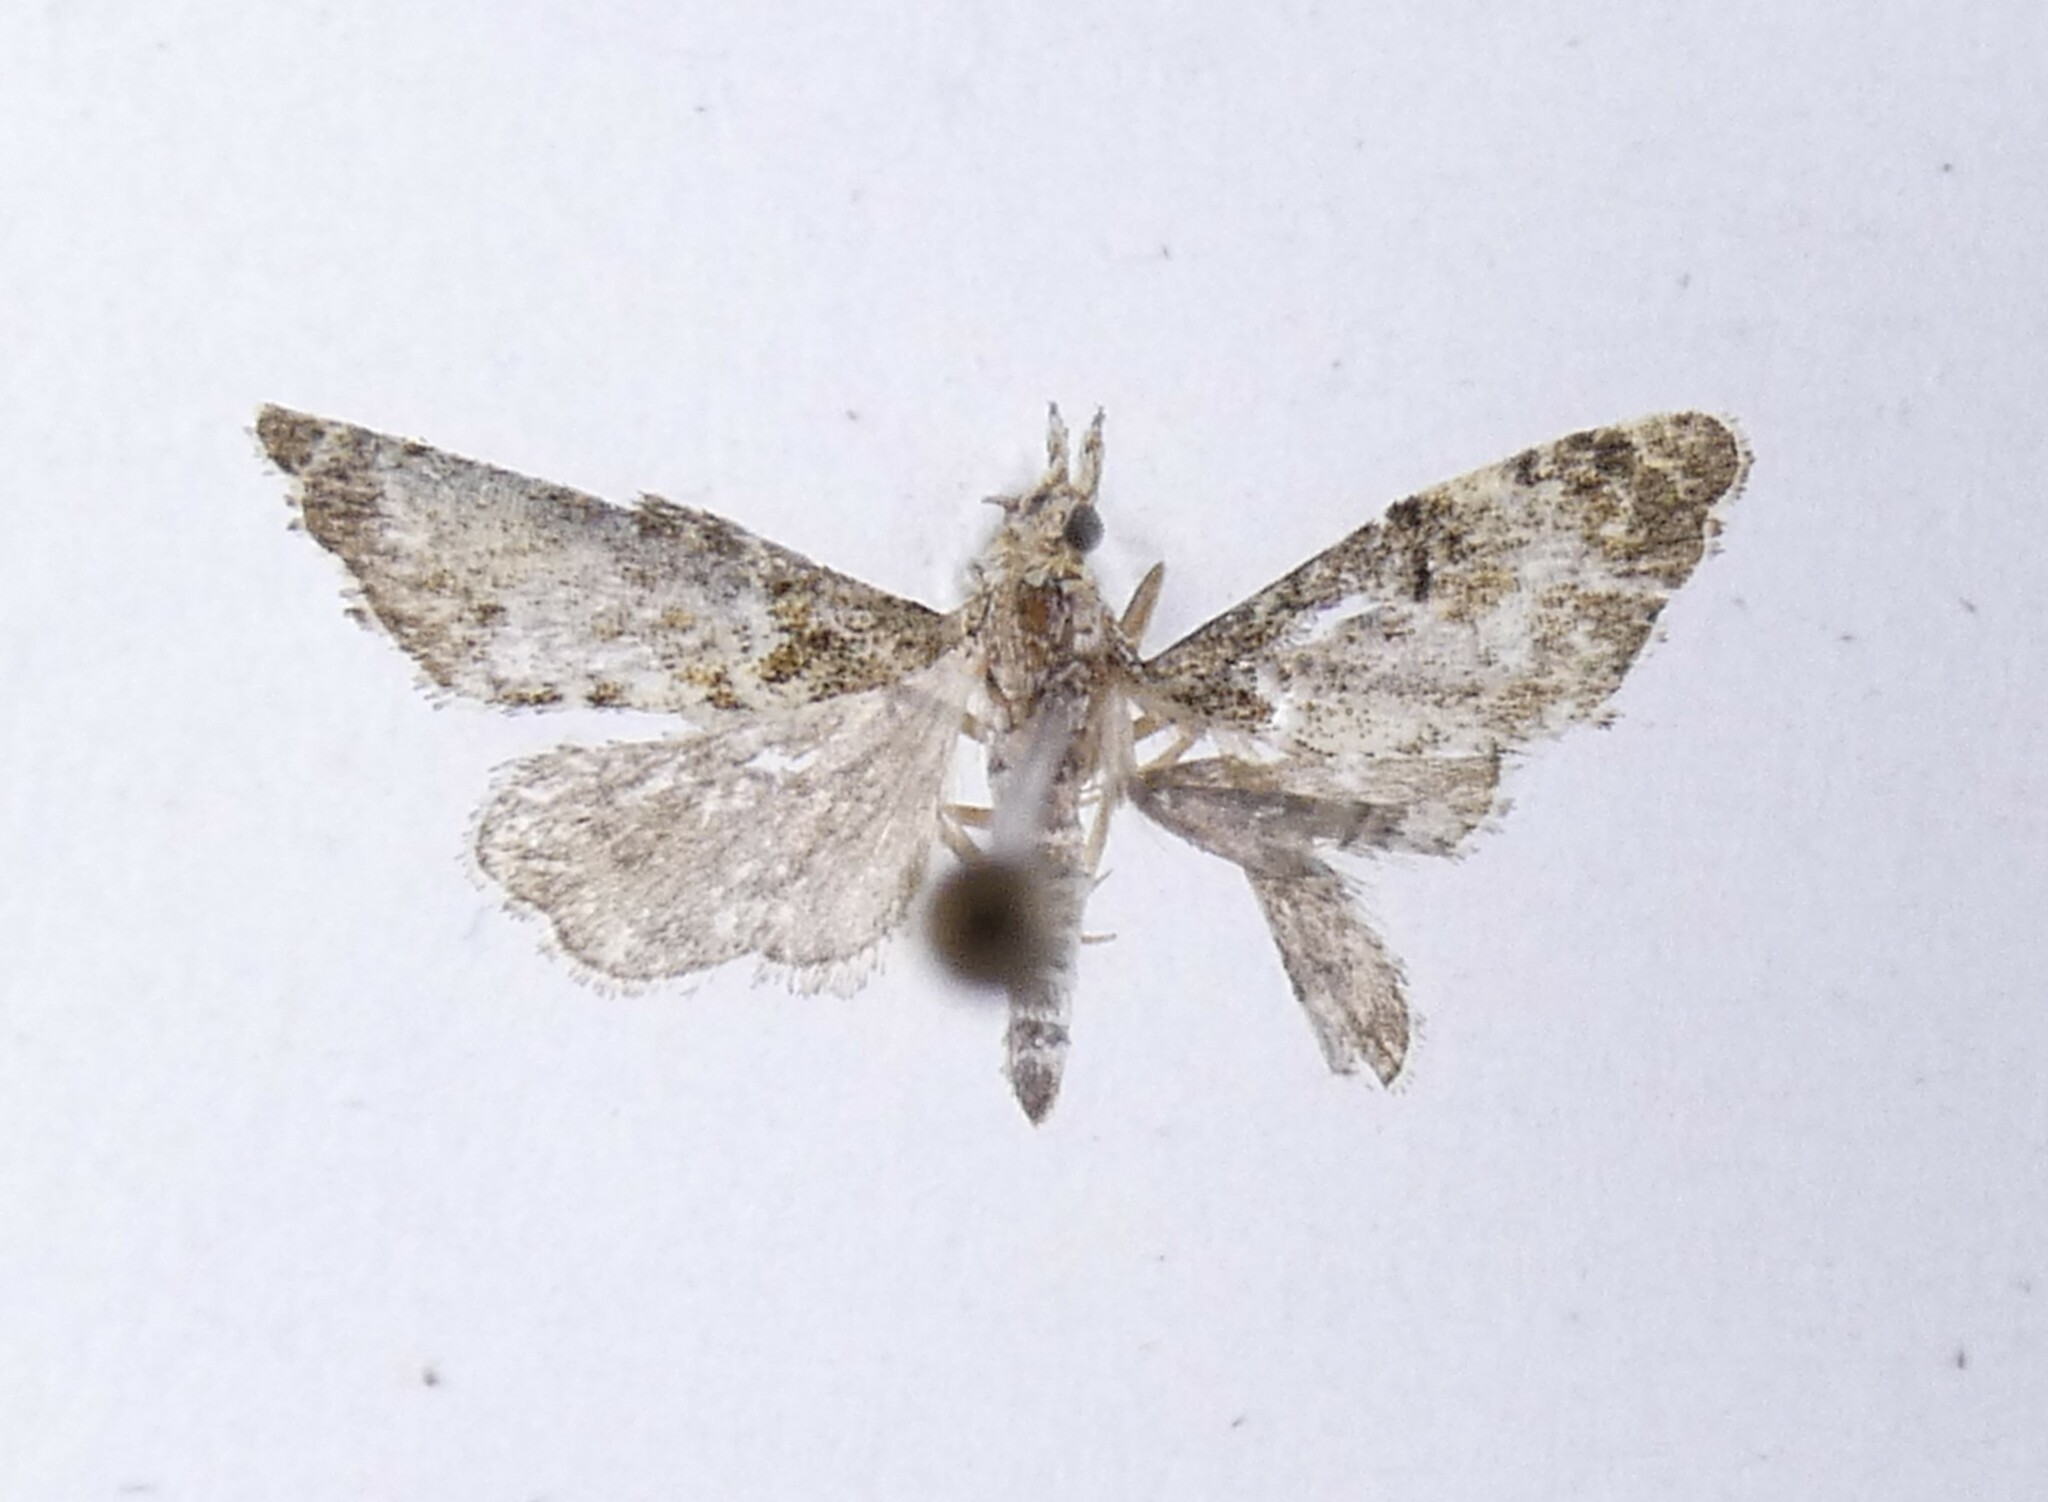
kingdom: Animalia
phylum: Arthropoda
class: Insecta
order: Lepidoptera
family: Crambidae
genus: Glaucocharis
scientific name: Glaucocharis elaina
